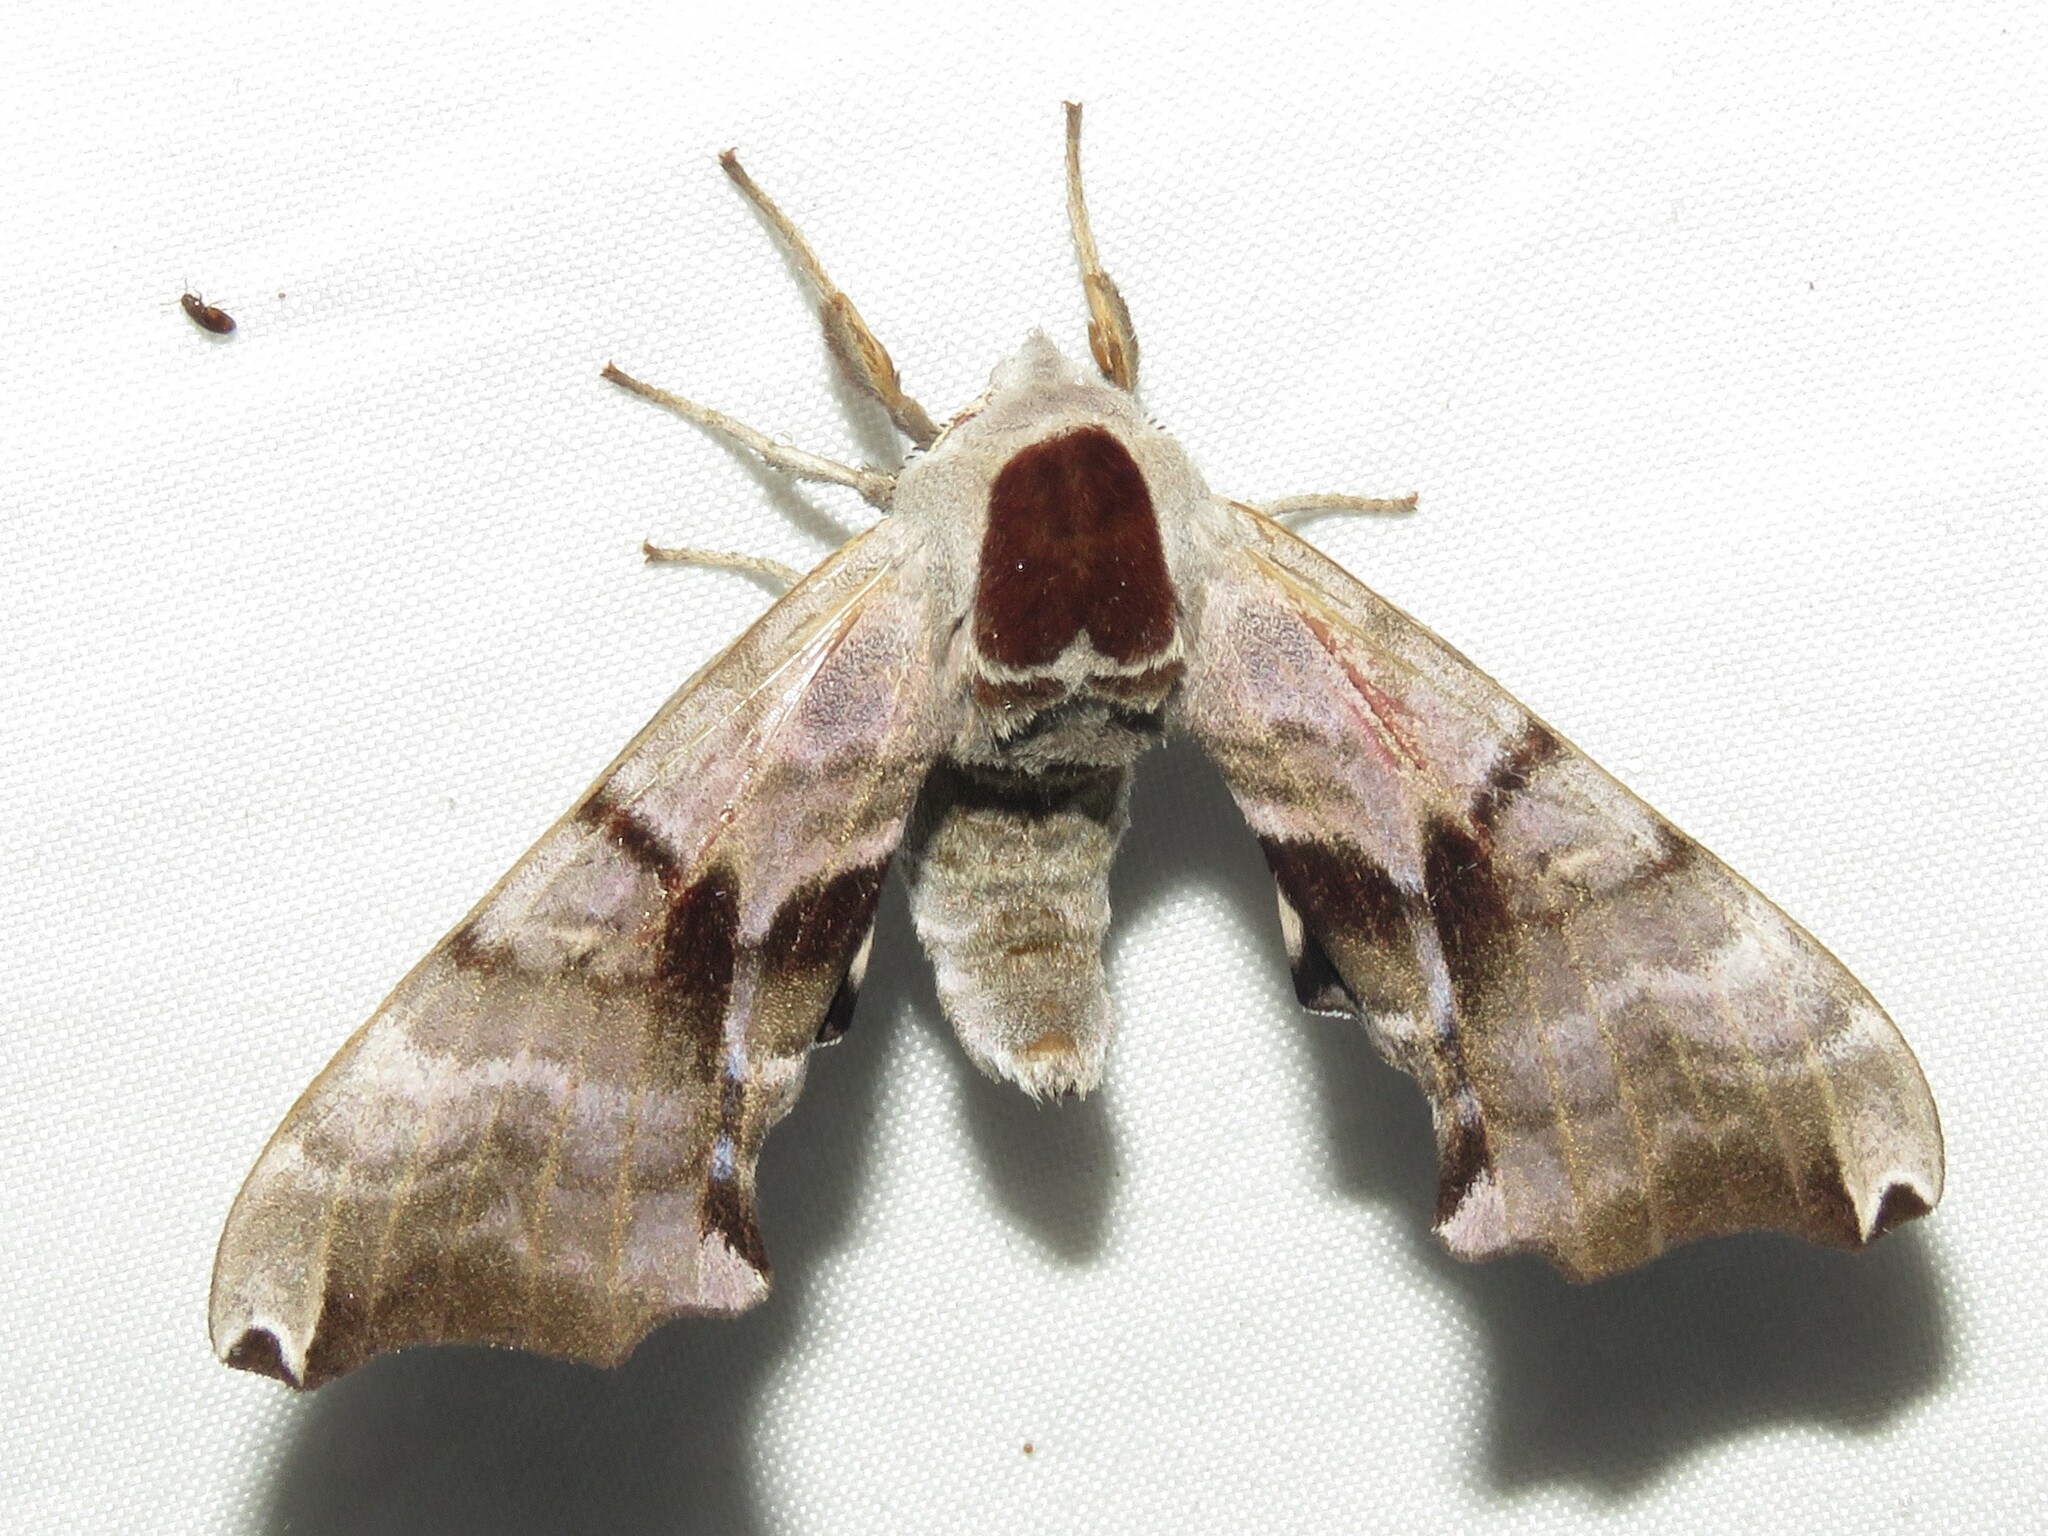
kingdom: Animalia
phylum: Arthropoda
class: Insecta
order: Lepidoptera
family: Sphingidae
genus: Smerinthus
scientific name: Smerinthus jamaicensis
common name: Twin spotted sphinx
